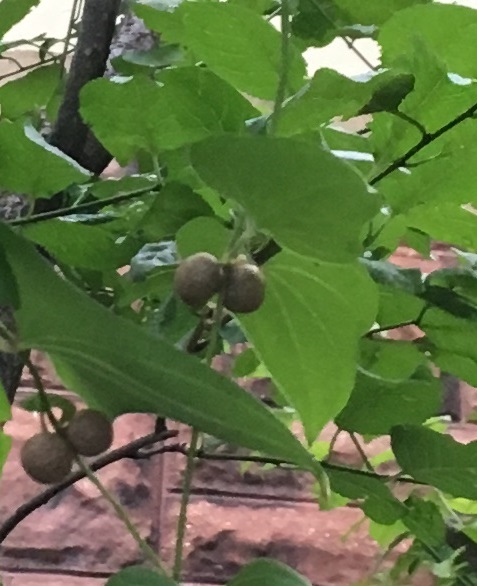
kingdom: Plantae
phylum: Tracheophyta
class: Liliopsida
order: Dioscoreales
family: Dioscoreaceae
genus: Dioscorea
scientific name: Dioscorea polystachya
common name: Chinese yam
